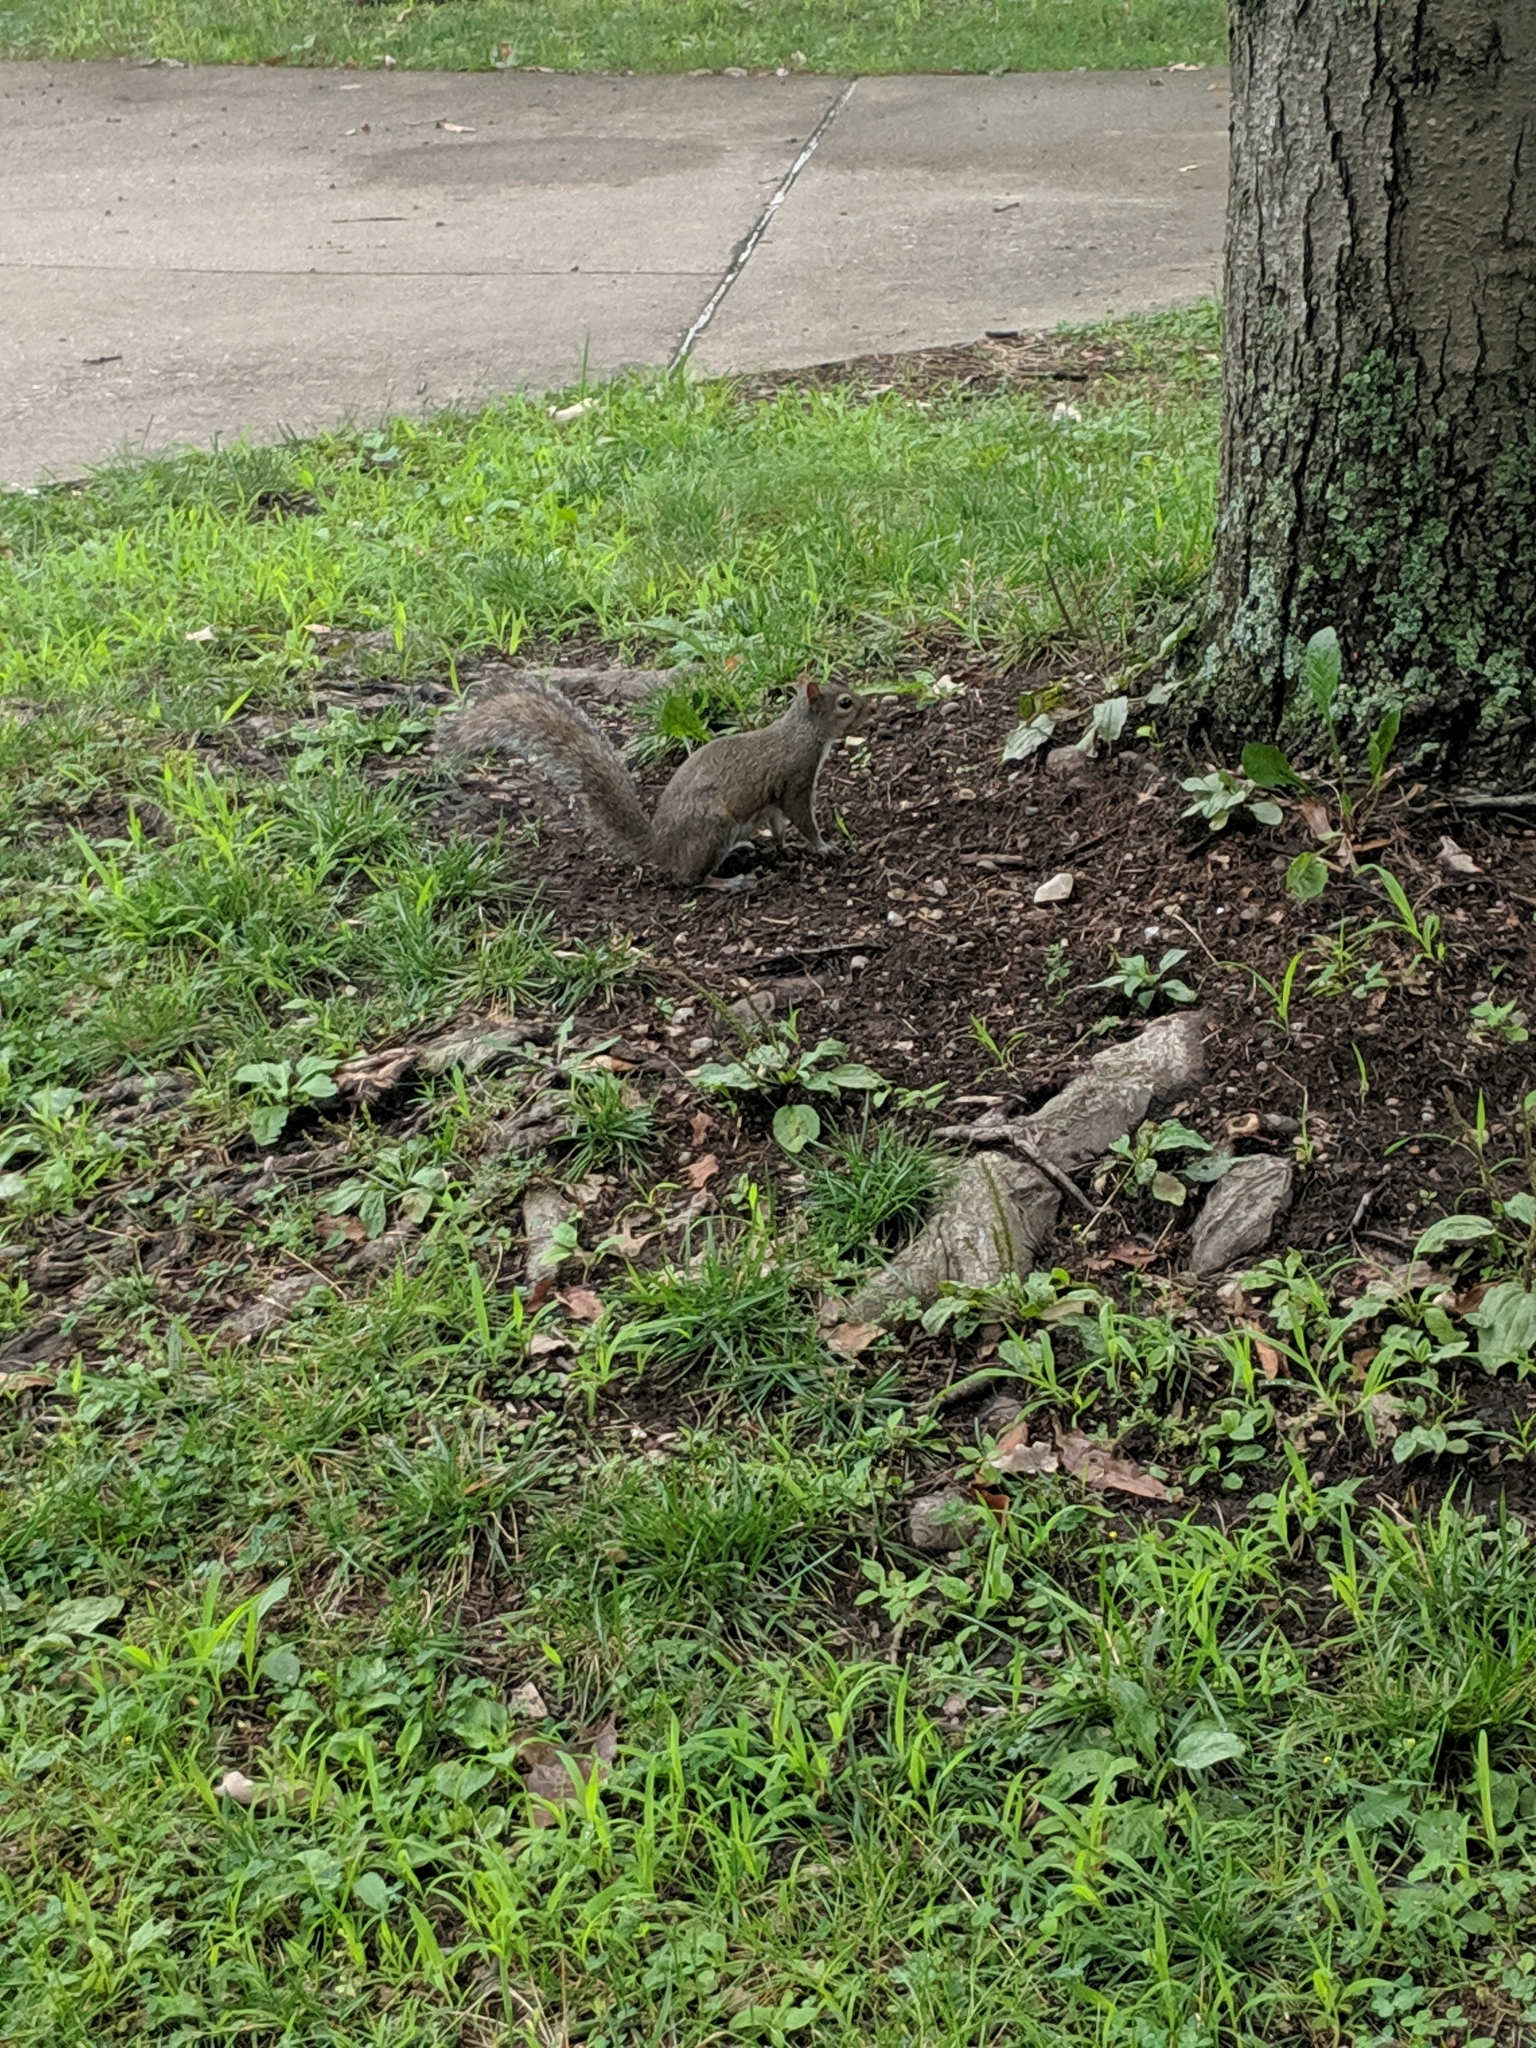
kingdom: Animalia
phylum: Chordata
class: Mammalia
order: Rodentia
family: Sciuridae
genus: Sciurus
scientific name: Sciurus carolinensis
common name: Eastern gray squirrel
